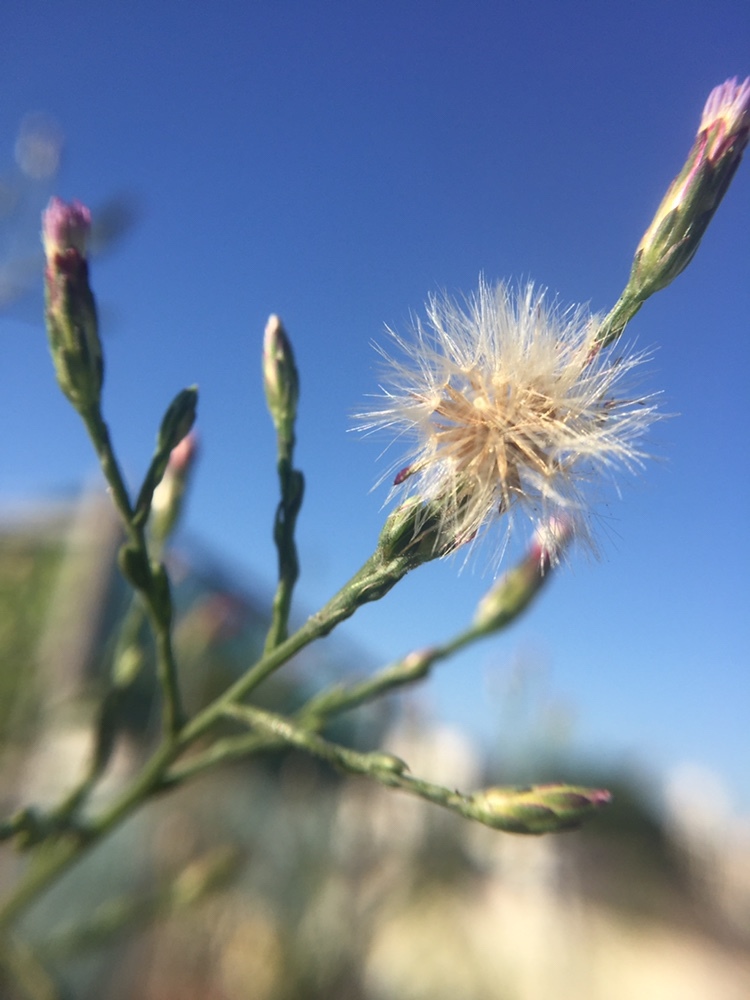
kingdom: Plantae
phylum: Tracheophyta
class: Magnoliopsida
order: Asterales
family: Asteraceae
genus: Symphyotrichum
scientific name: Symphyotrichum squamatum
